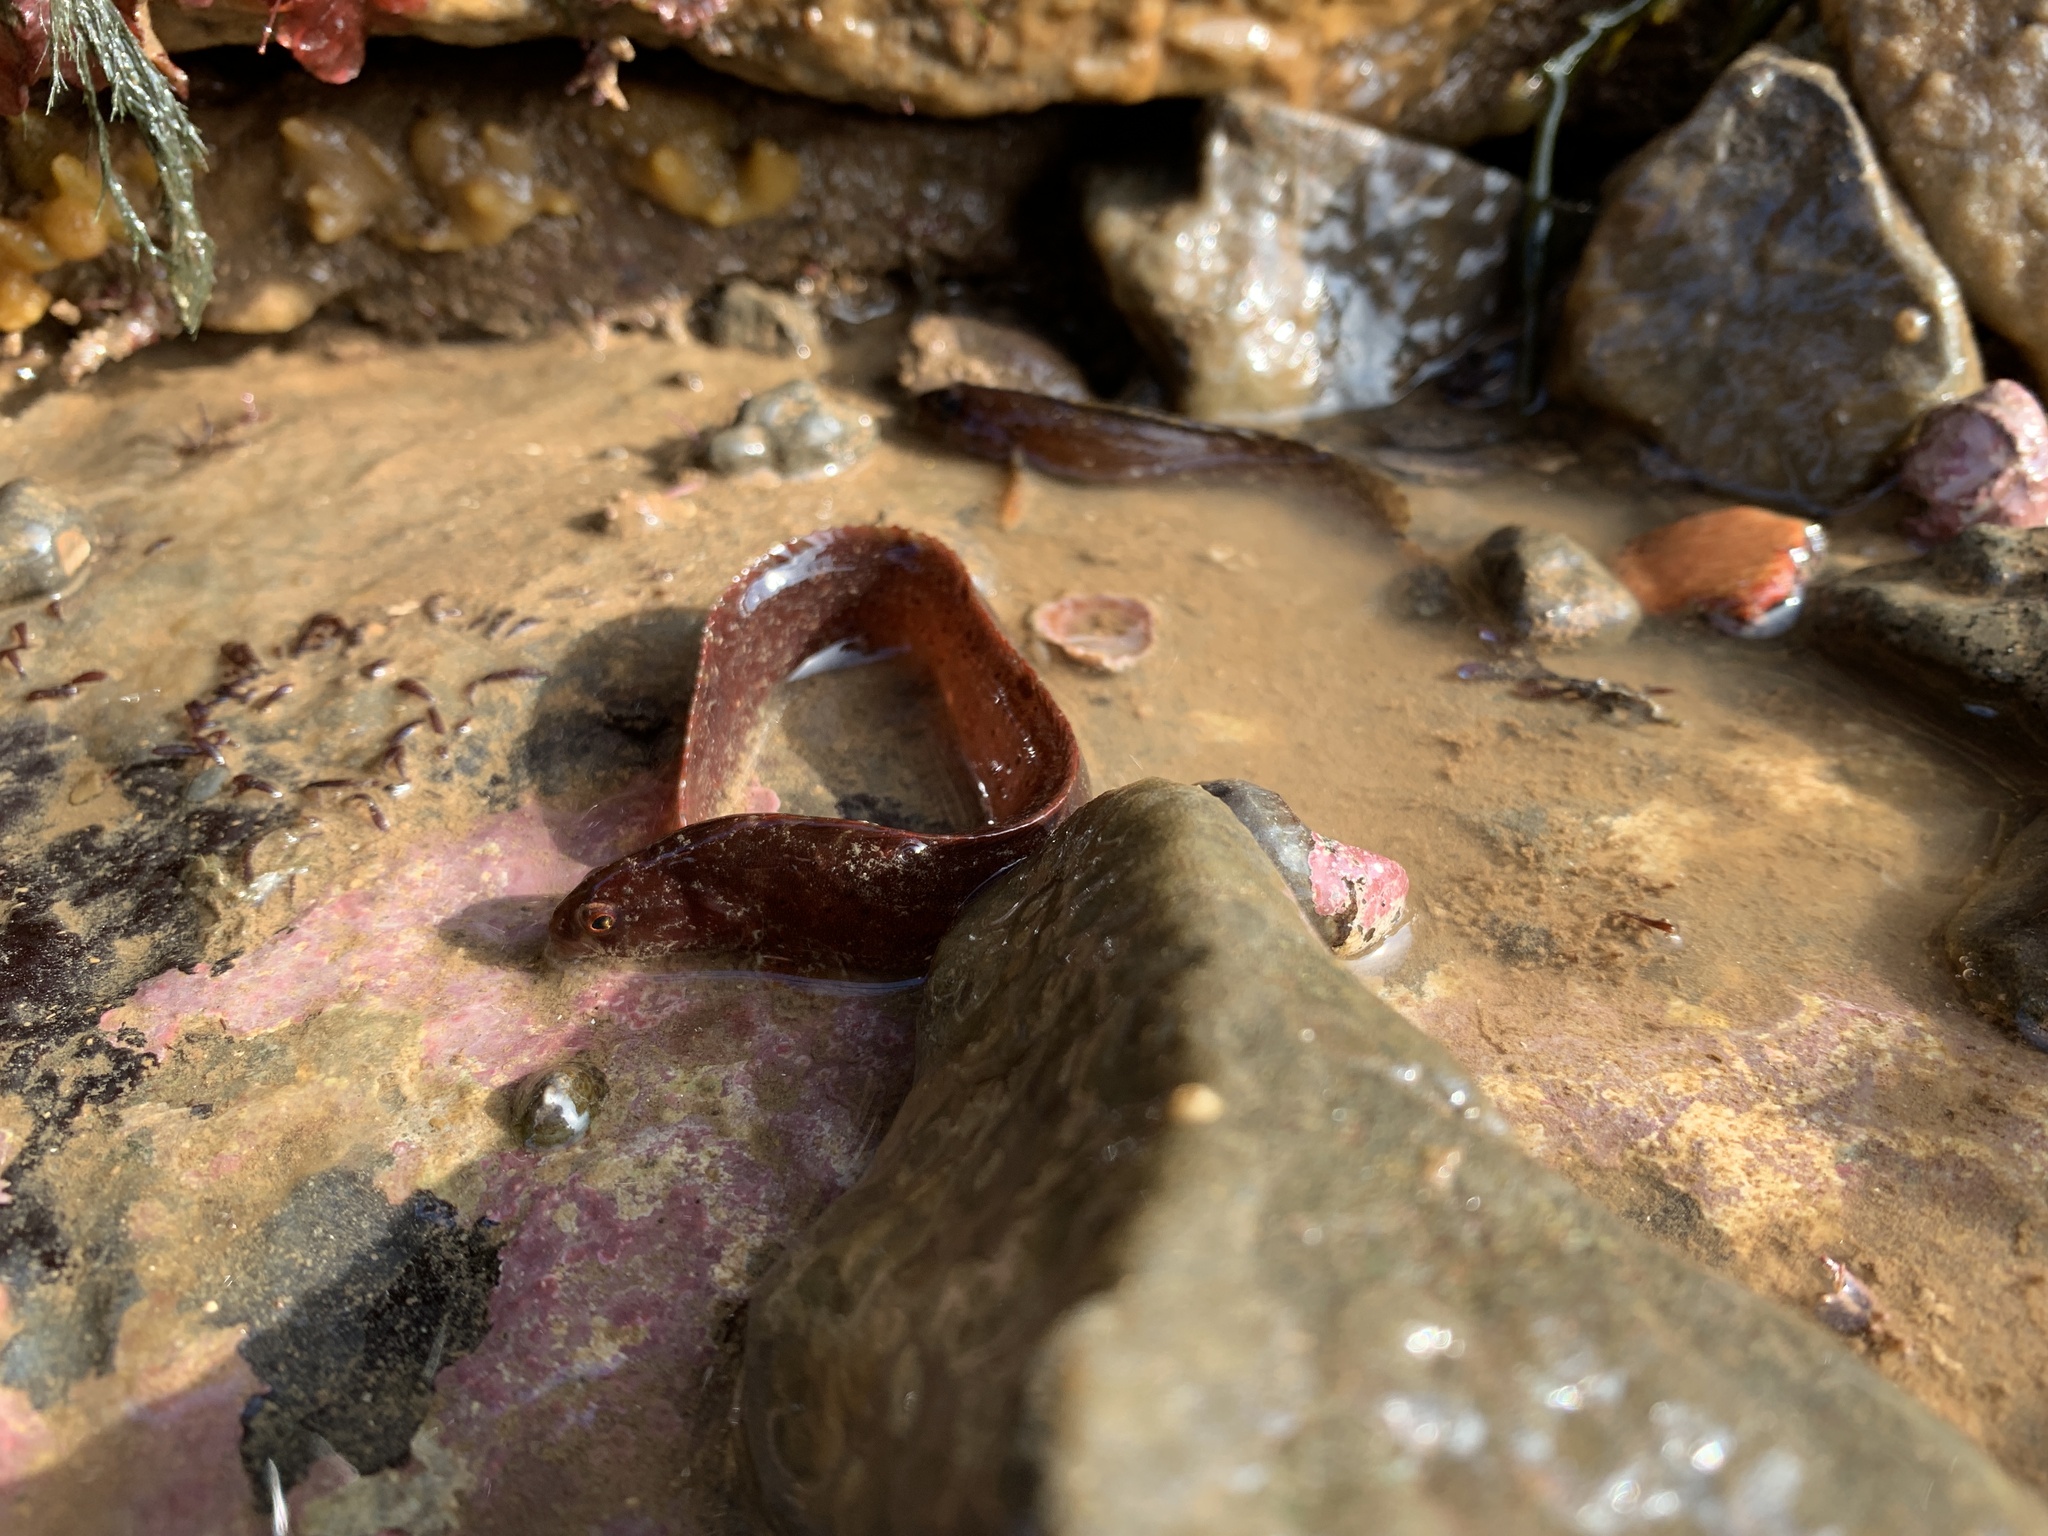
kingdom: Animalia
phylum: Chordata
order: Perciformes
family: Pholidae
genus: Pholis
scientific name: Pholis gunnellus
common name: Butterfish
